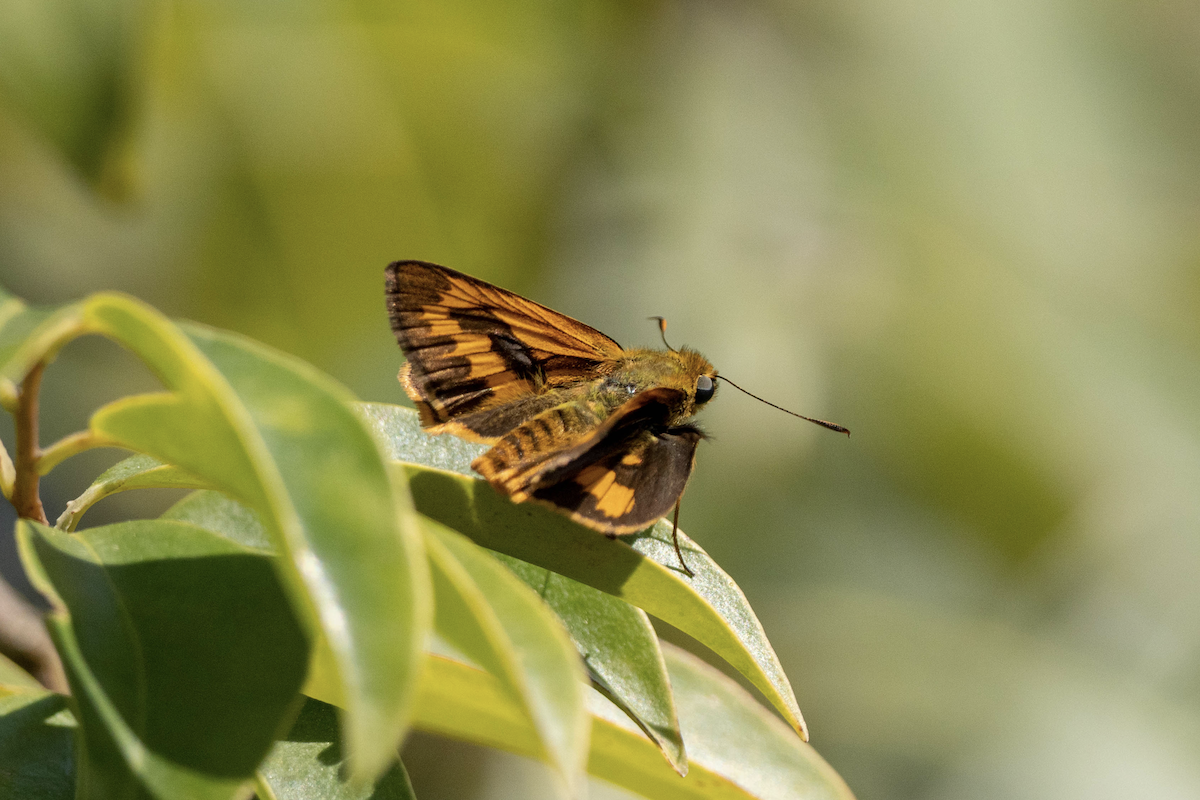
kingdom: Animalia
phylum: Arthropoda
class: Insecta
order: Lepidoptera
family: Hesperiidae
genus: Telicota
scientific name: Telicota besta
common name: Hainan palm dart
